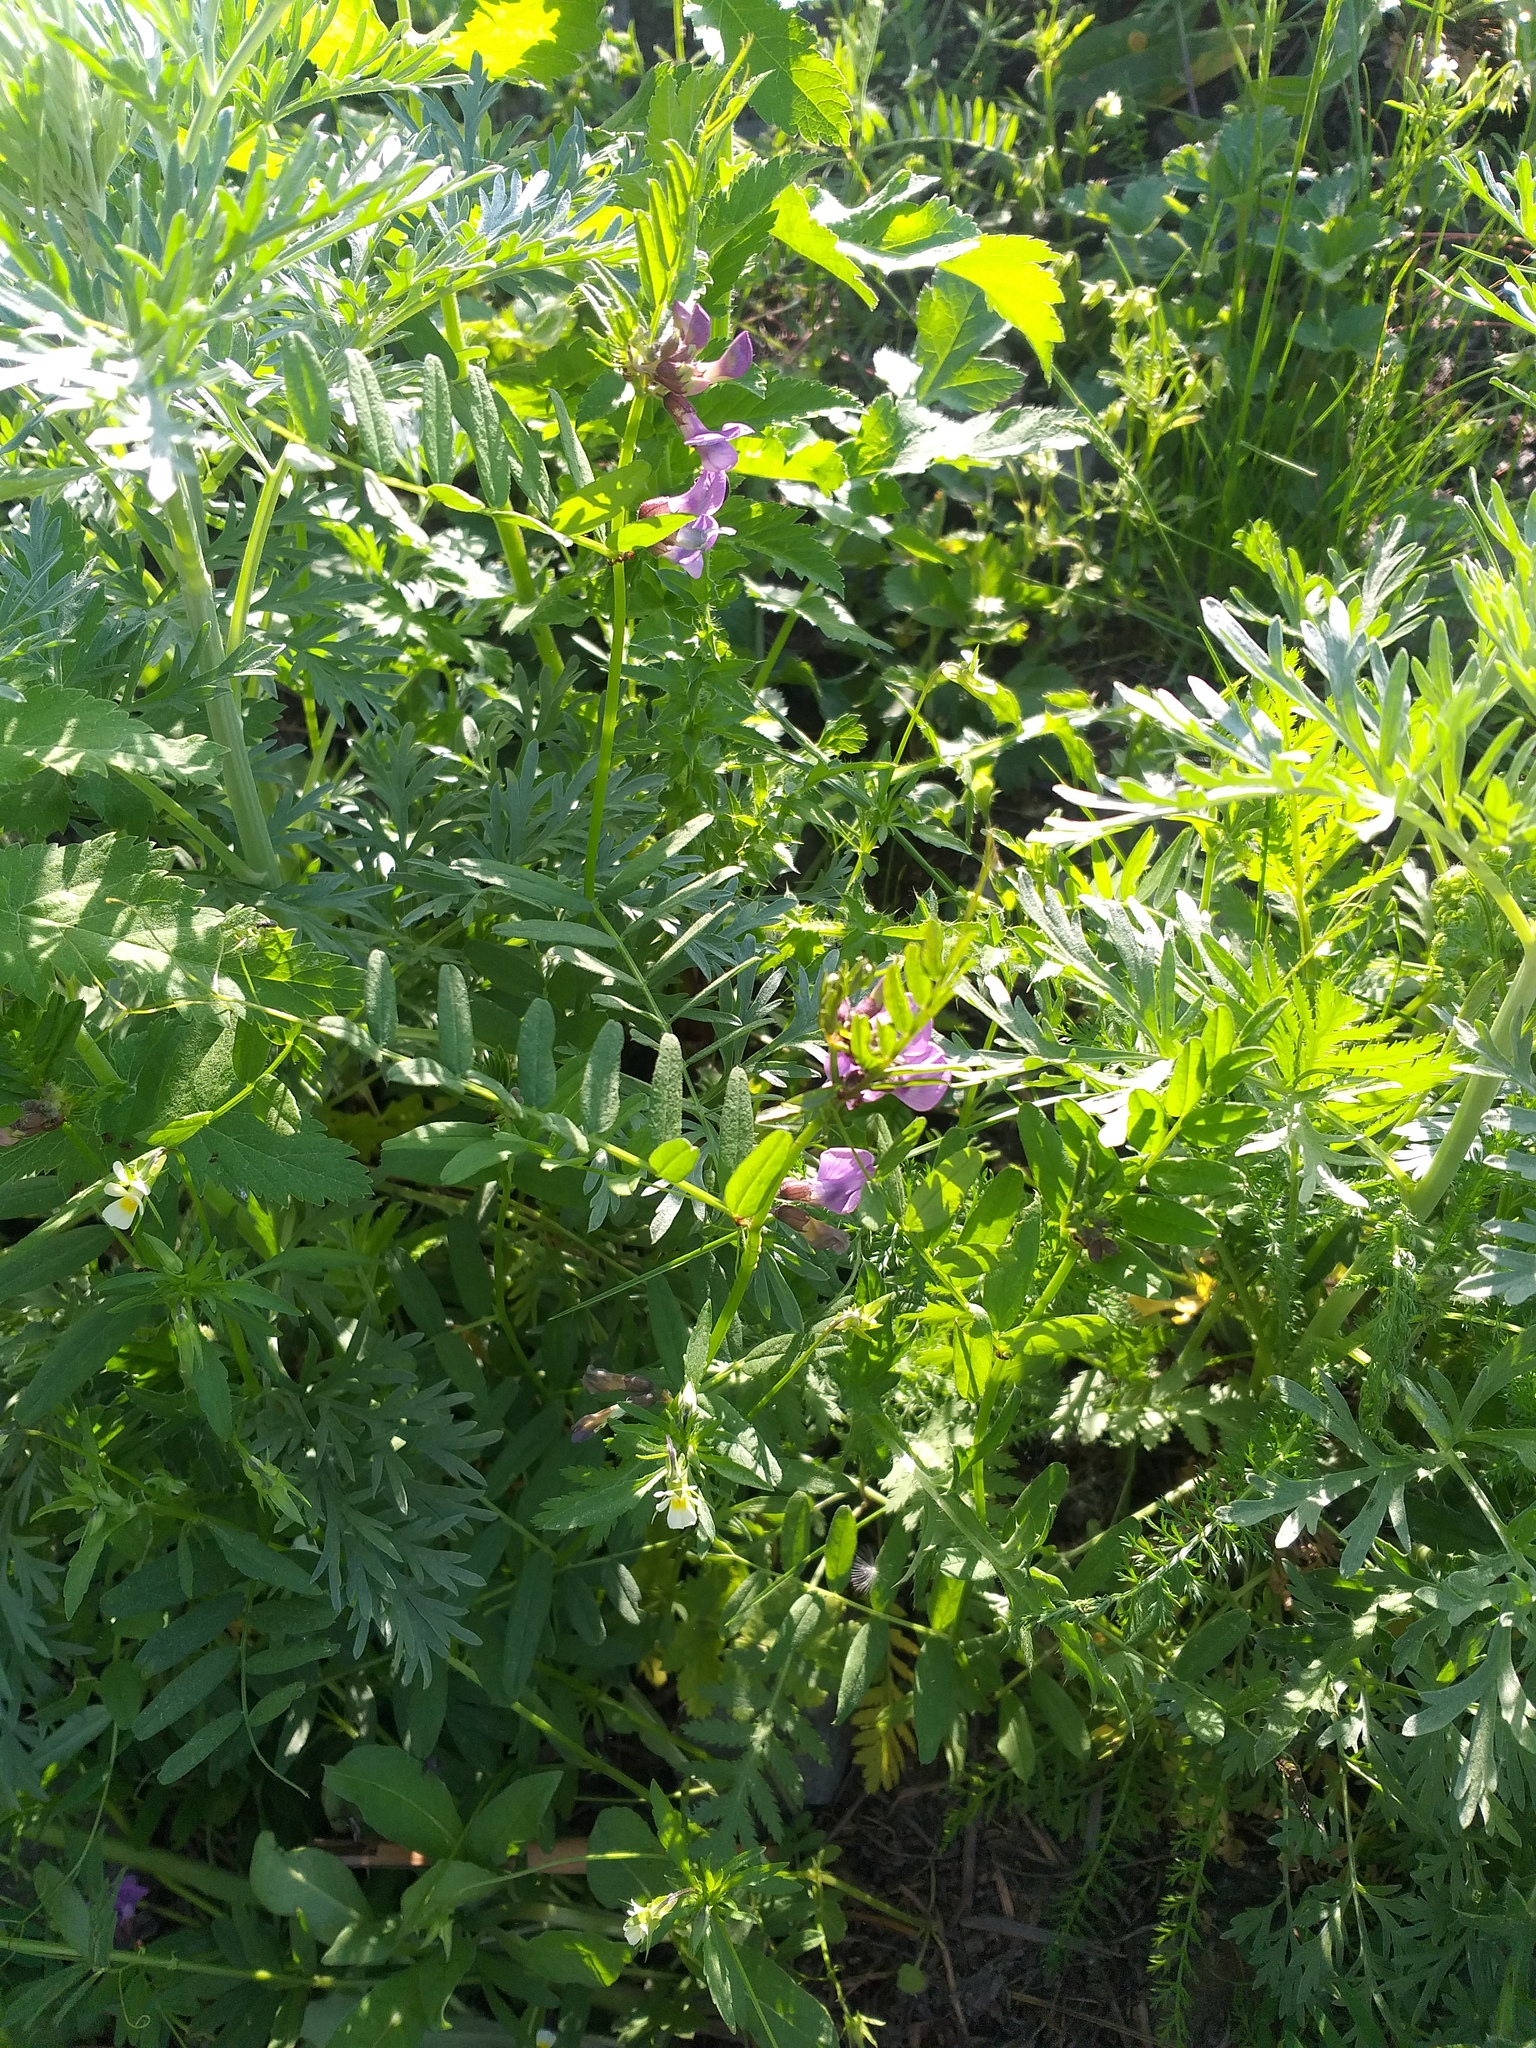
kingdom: Plantae
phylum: Tracheophyta
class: Magnoliopsida
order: Fabales
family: Fabaceae
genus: Vicia
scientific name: Vicia sepium
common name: Bush vetch
